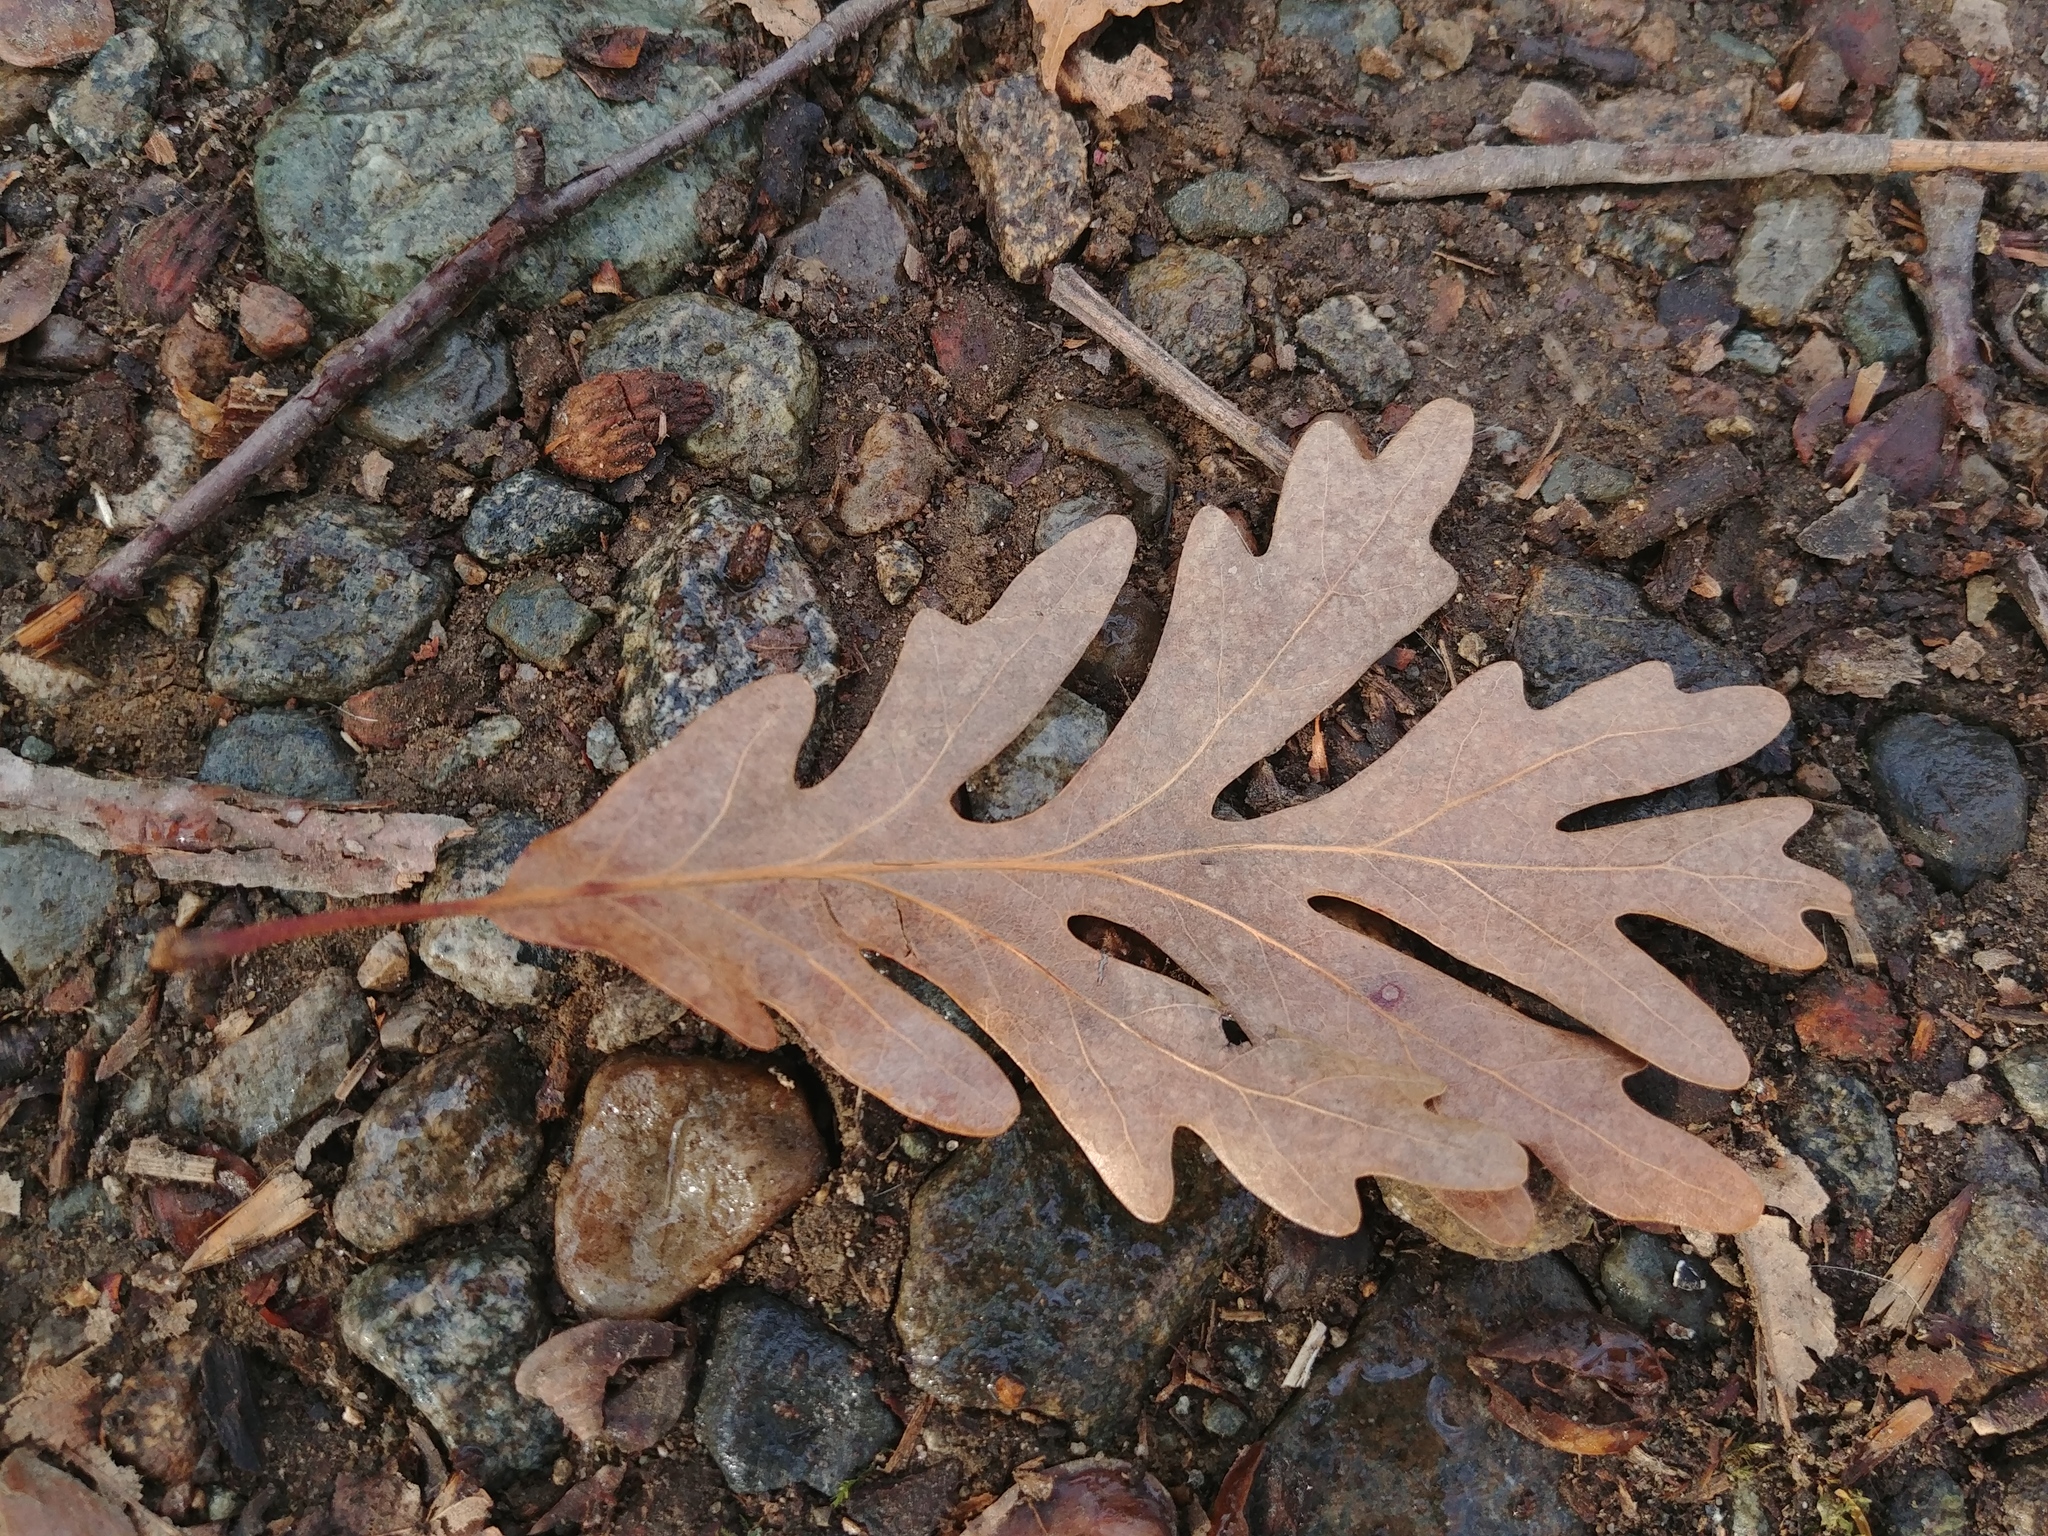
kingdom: Plantae
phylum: Tracheophyta
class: Magnoliopsida
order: Fagales
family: Fagaceae
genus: Quercus
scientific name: Quercus alba
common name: White oak
